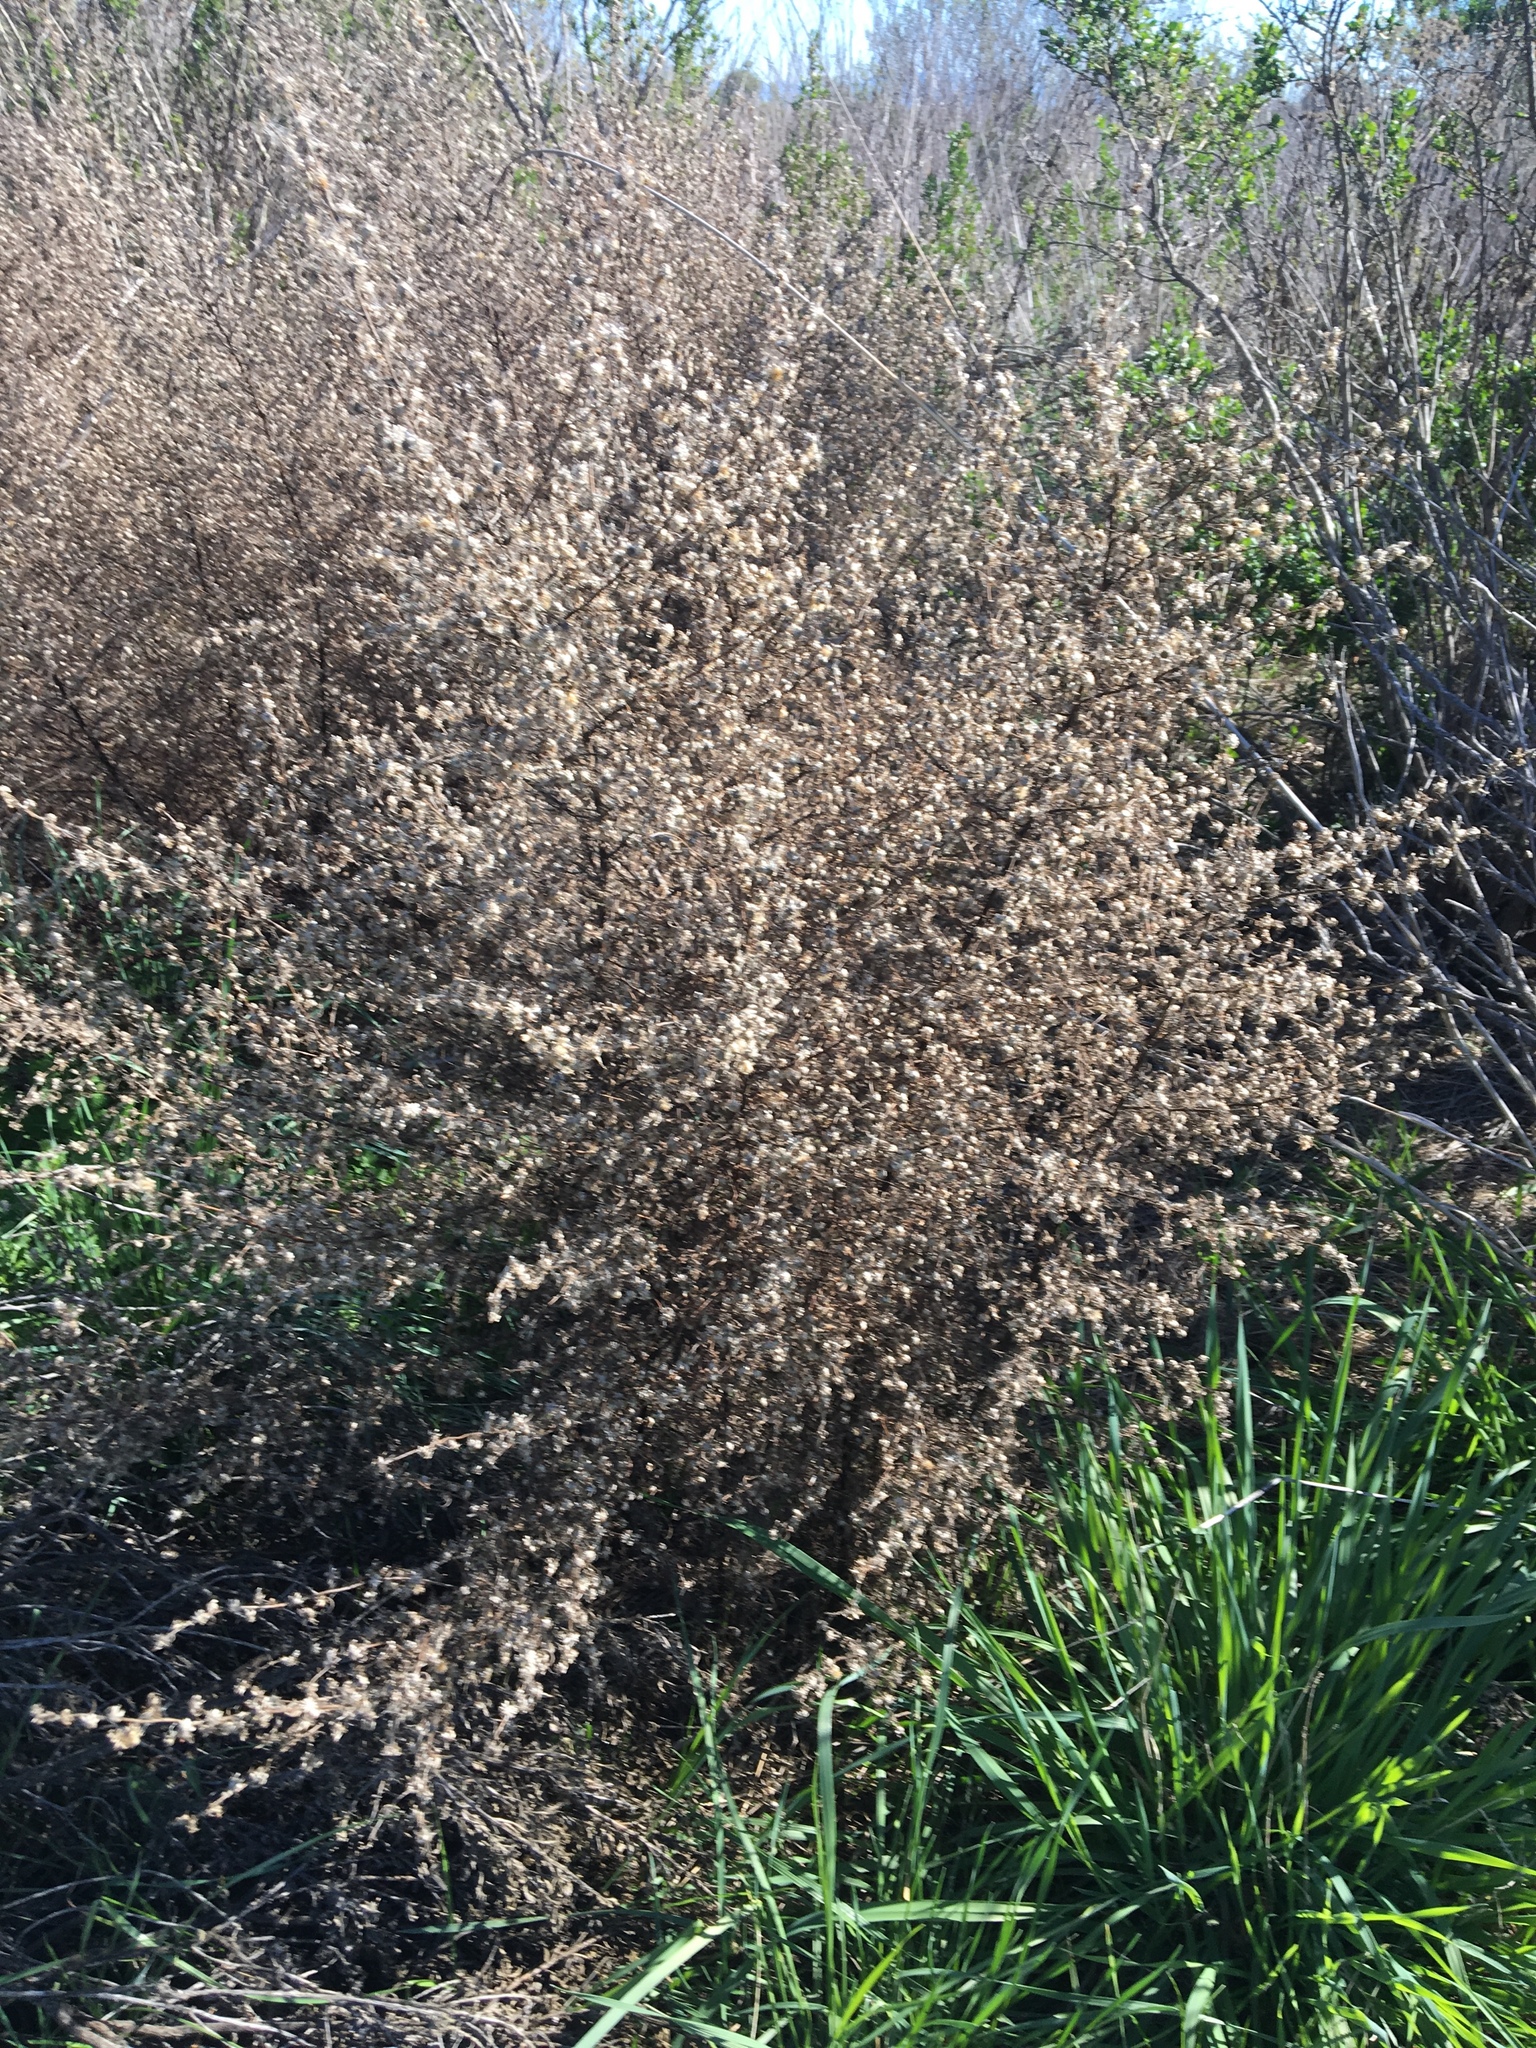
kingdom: Plantae
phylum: Tracheophyta
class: Magnoliopsida
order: Asterales
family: Asteraceae
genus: Dittrichia
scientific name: Dittrichia graveolens
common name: Stinking fleabane
